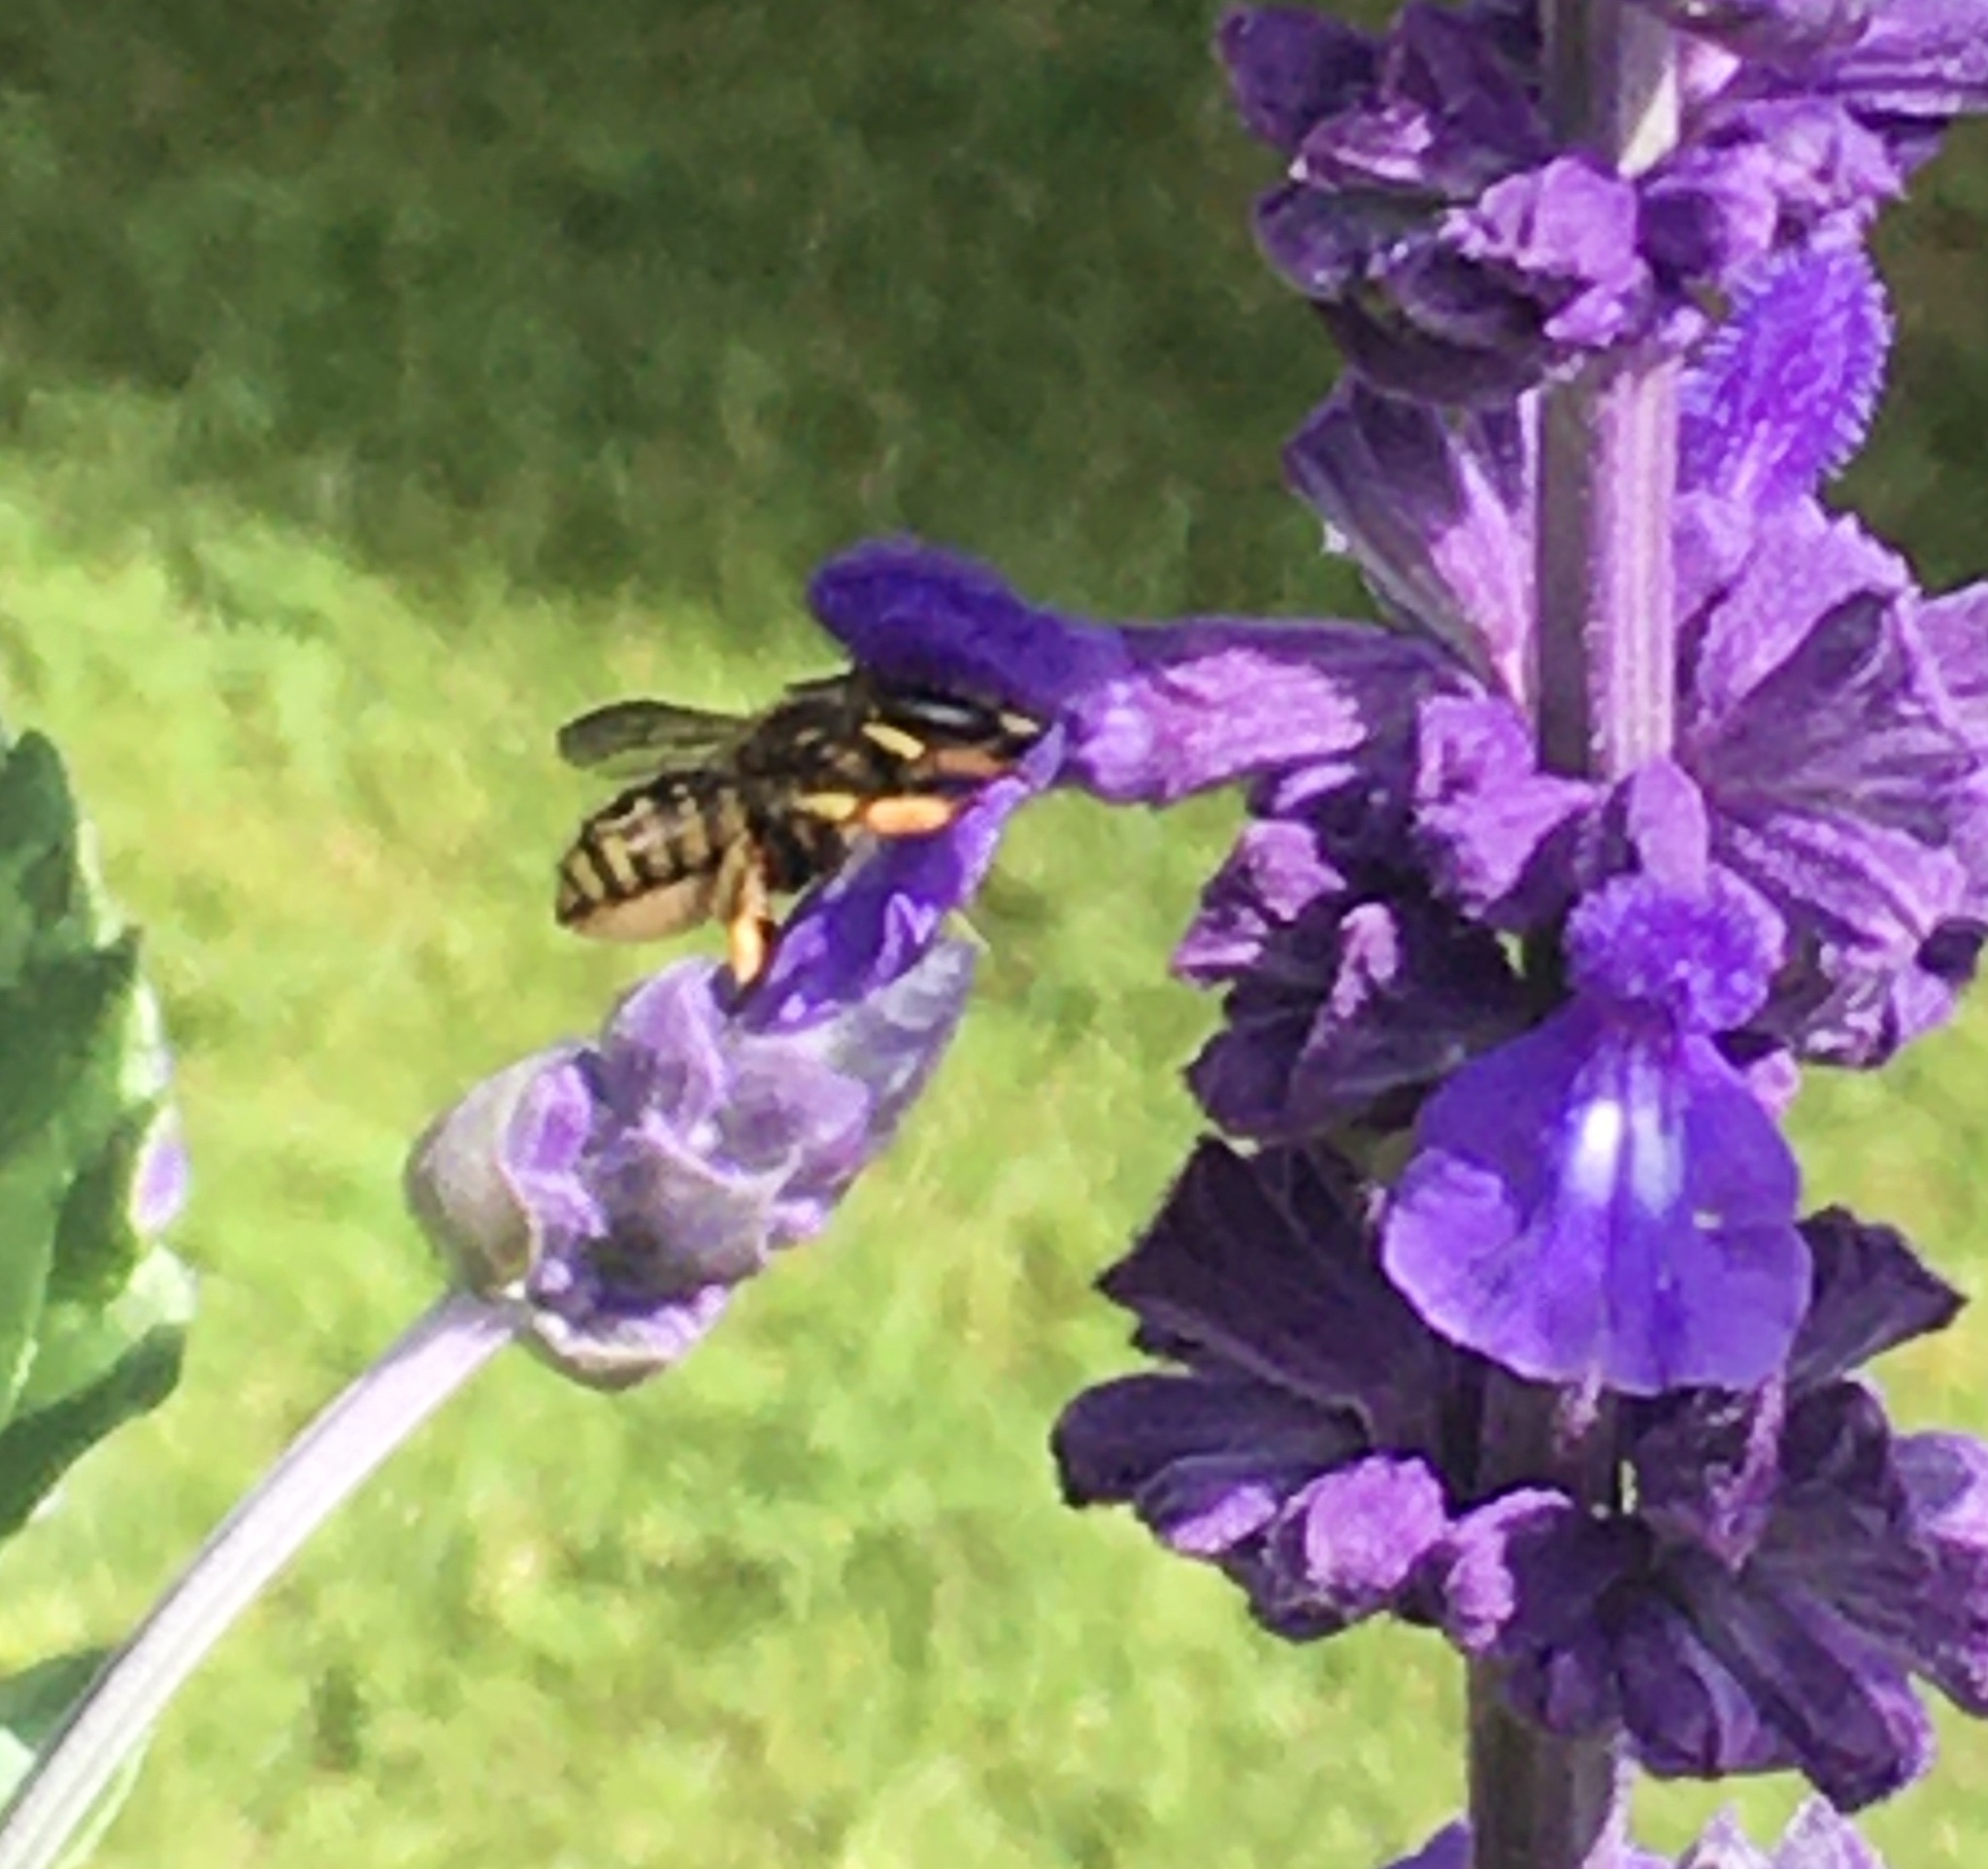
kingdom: Animalia
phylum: Arthropoda
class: Insecta
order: Hymenoptera
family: Megachilidae
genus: Anthidium
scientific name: Anthidium manicatum
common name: Wool carder bee
